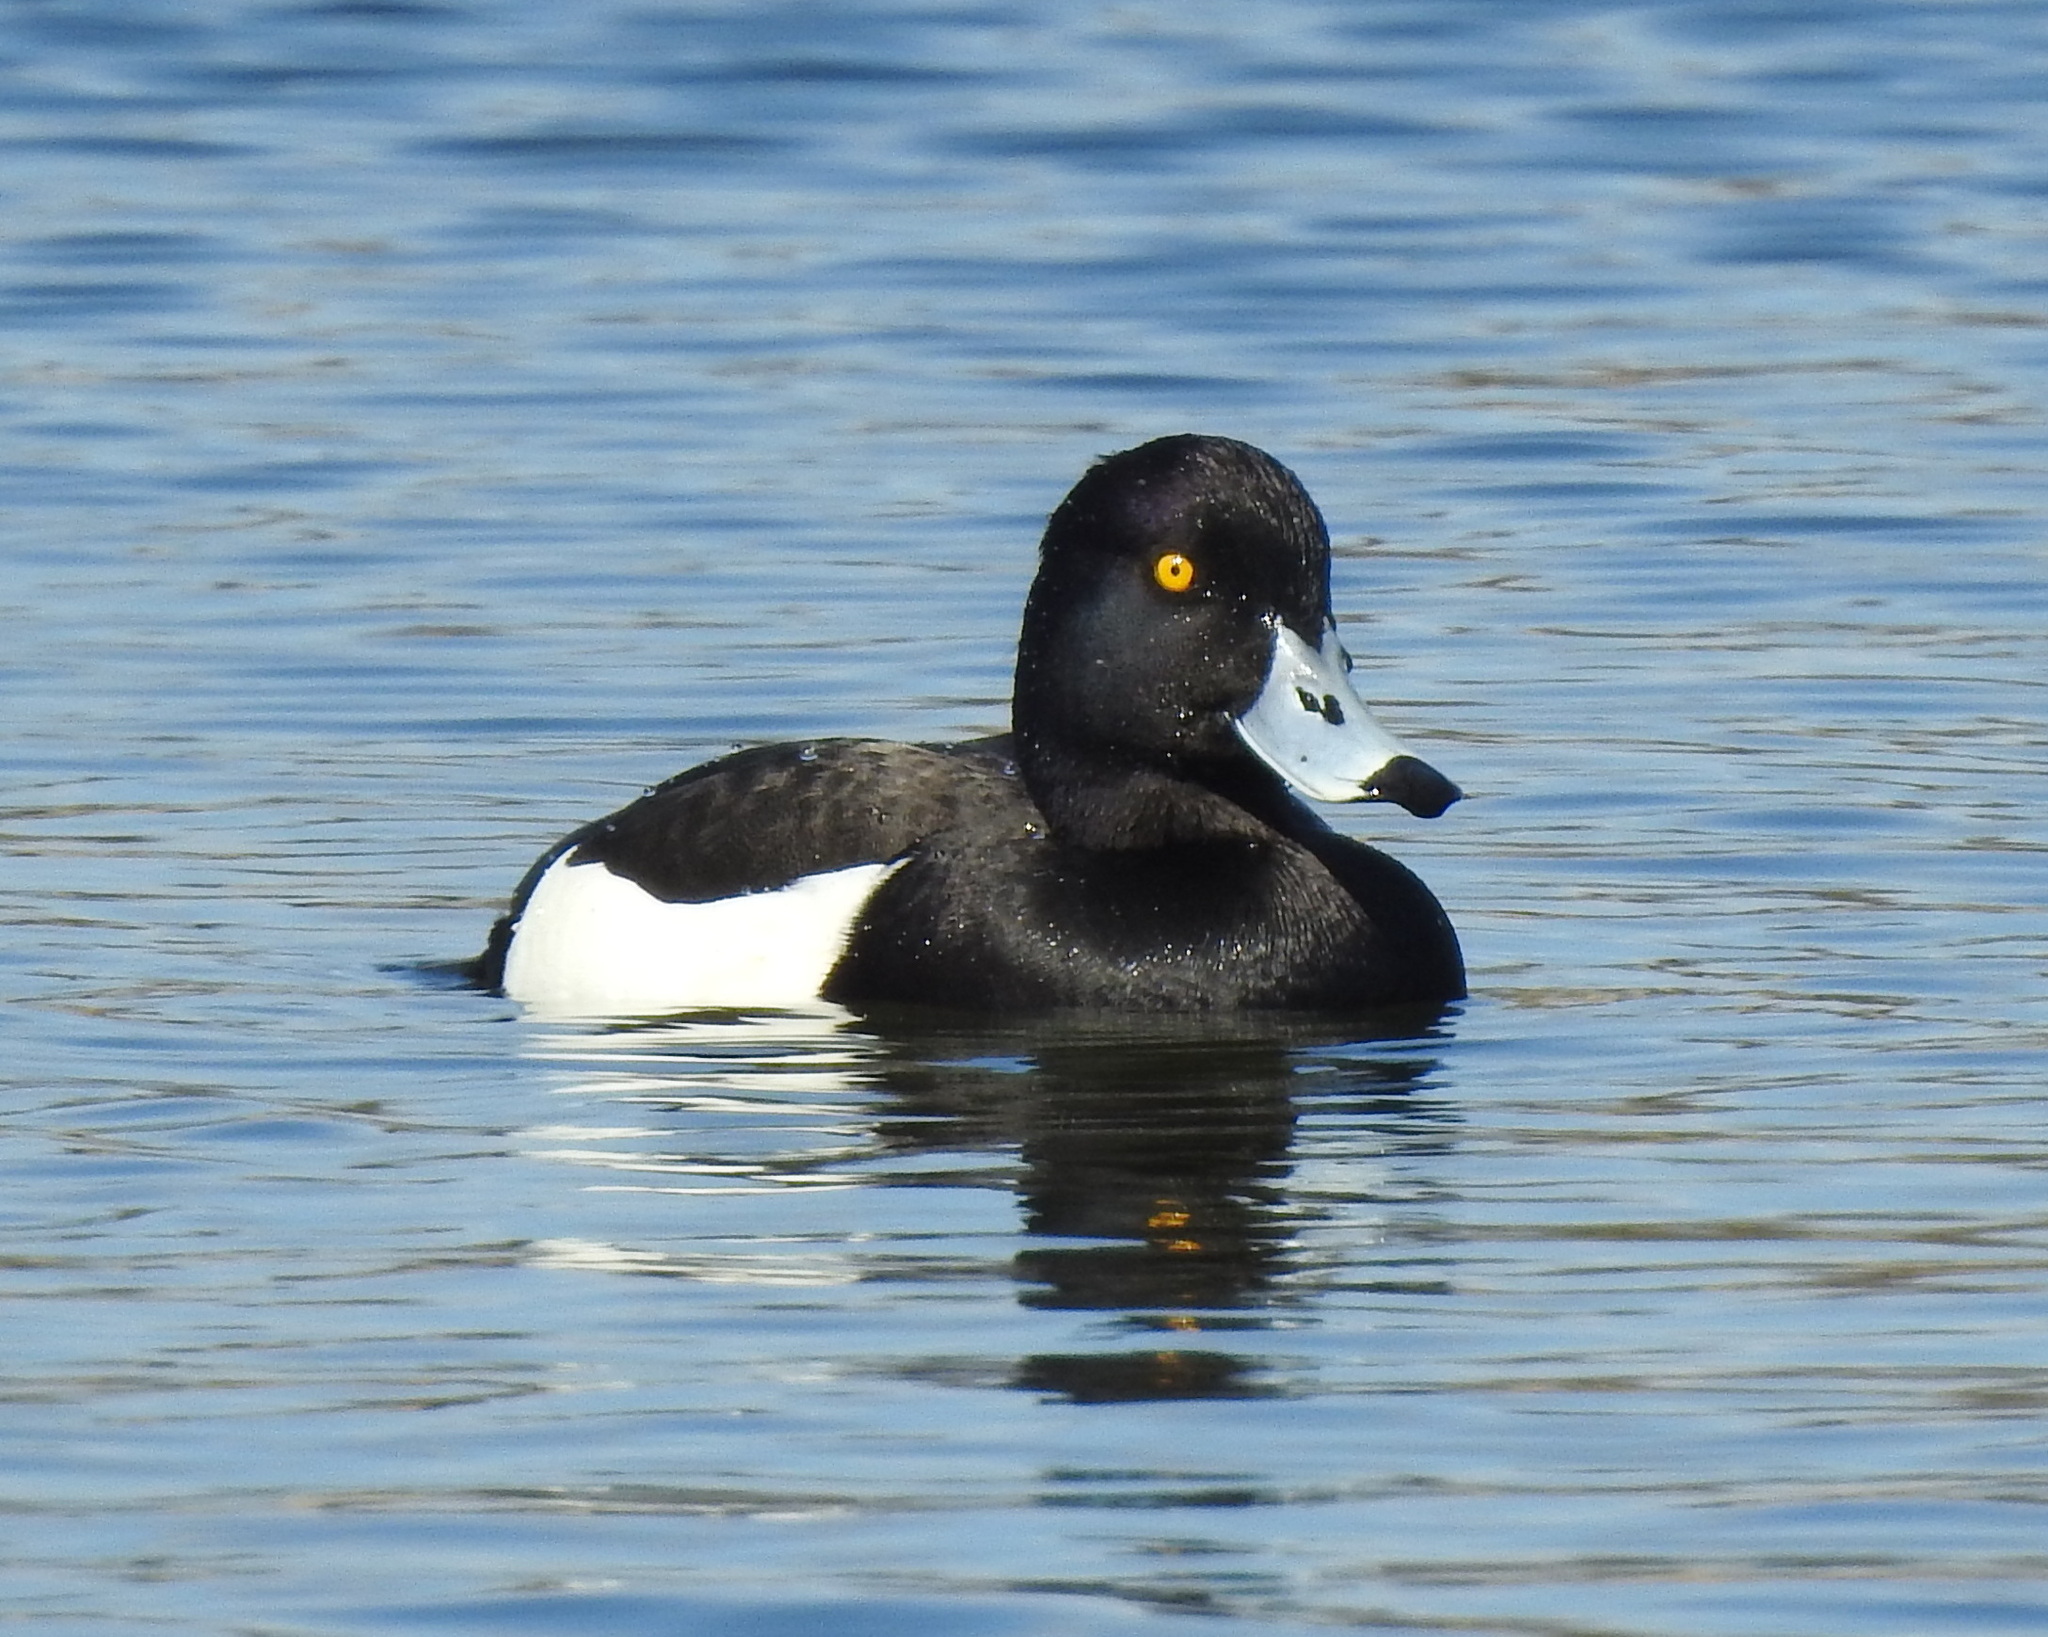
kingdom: Animalia
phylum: Chordata
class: Aves
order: Anseriformes
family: Anatidae
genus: Aythya
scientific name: Aythya fuligula
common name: Tufted duck
